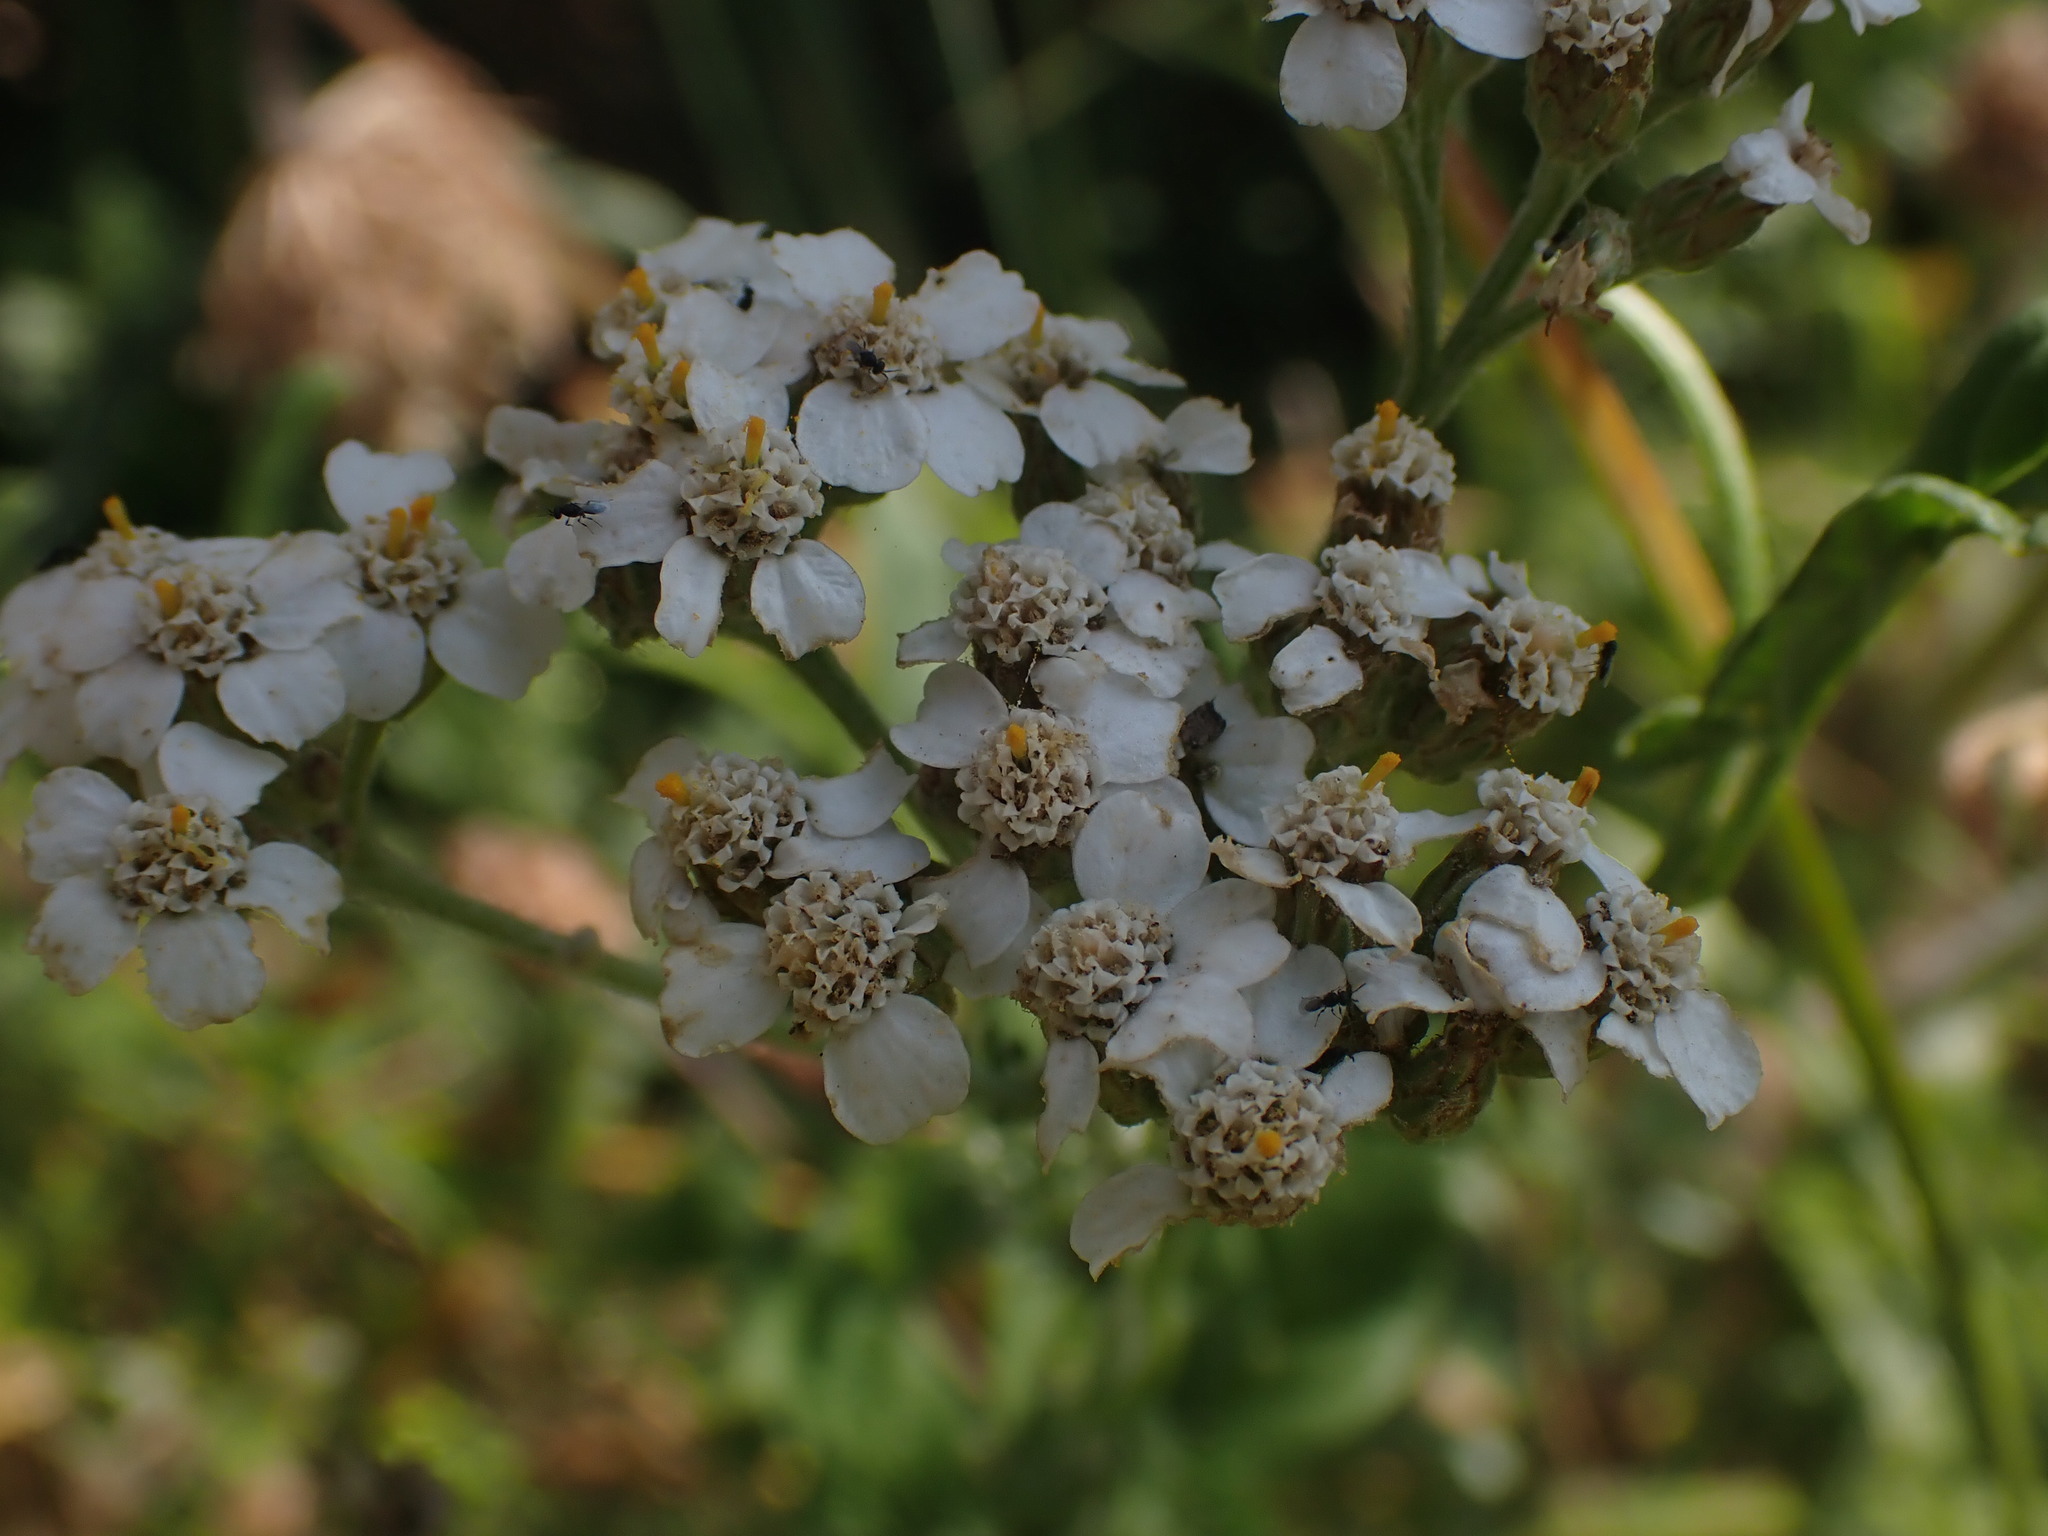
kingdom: Plantae
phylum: Tracheophyta
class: Magnoliopsida
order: Asterales
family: Asteraceae
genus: Achillea
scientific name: Achillea millefolium
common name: Yarrow
